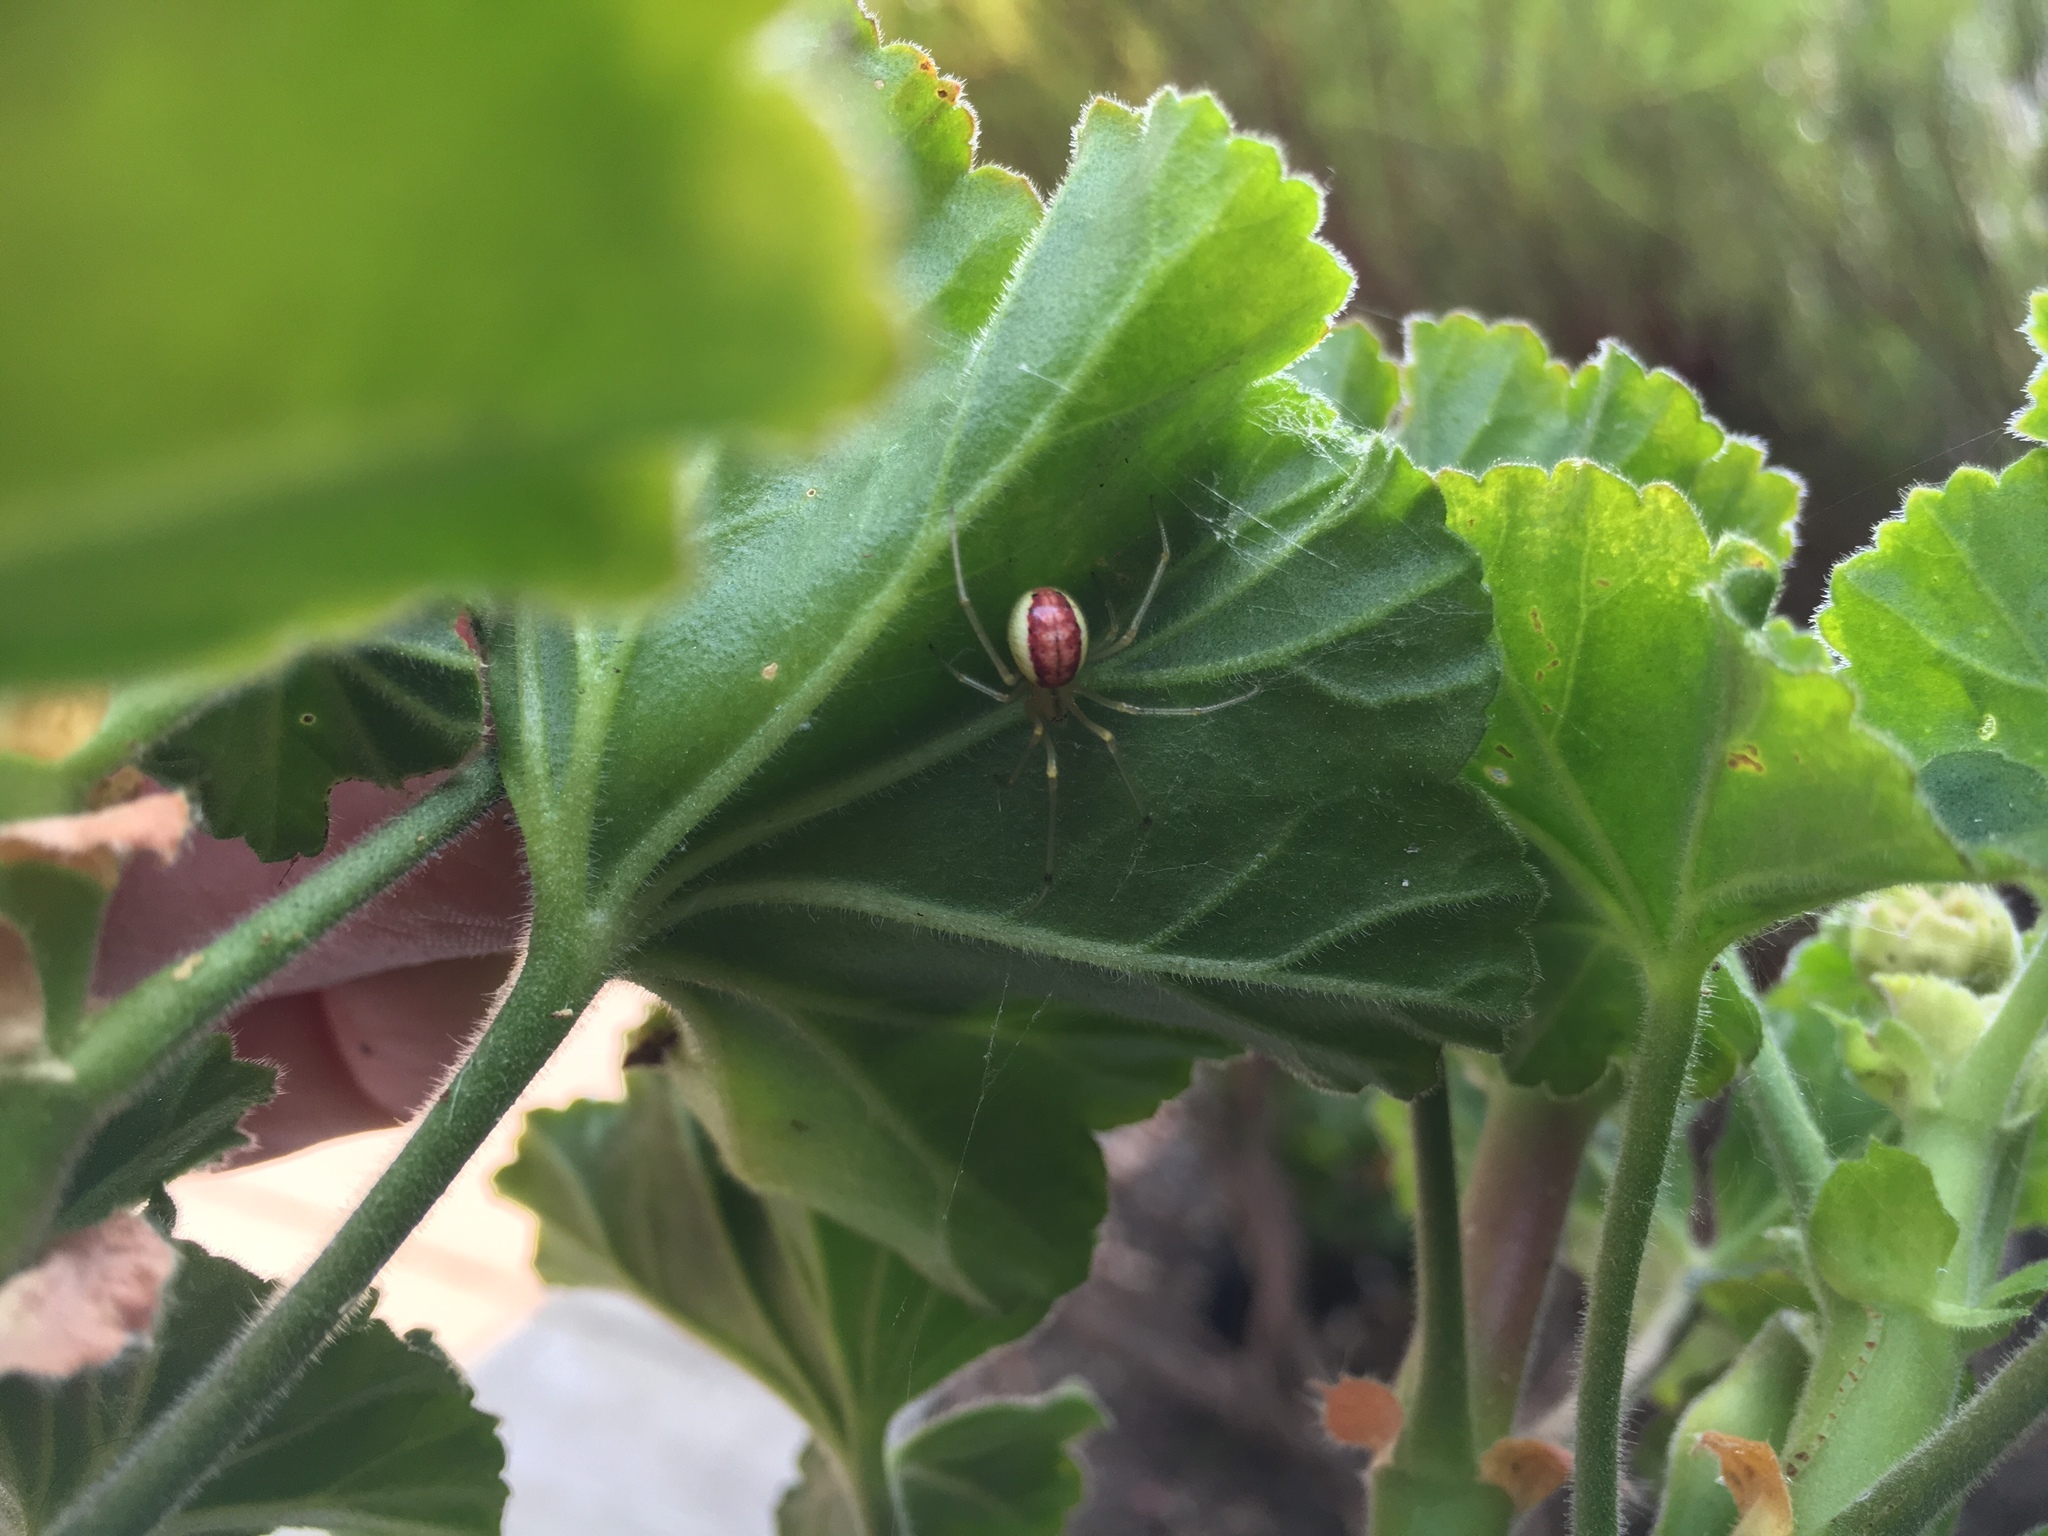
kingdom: Animalia
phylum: Arthropoda
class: Arachnida
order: Araneae
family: Theridiidae
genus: Enoplognatha
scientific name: Enoplognatha ovata
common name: Common candy-striped spider
